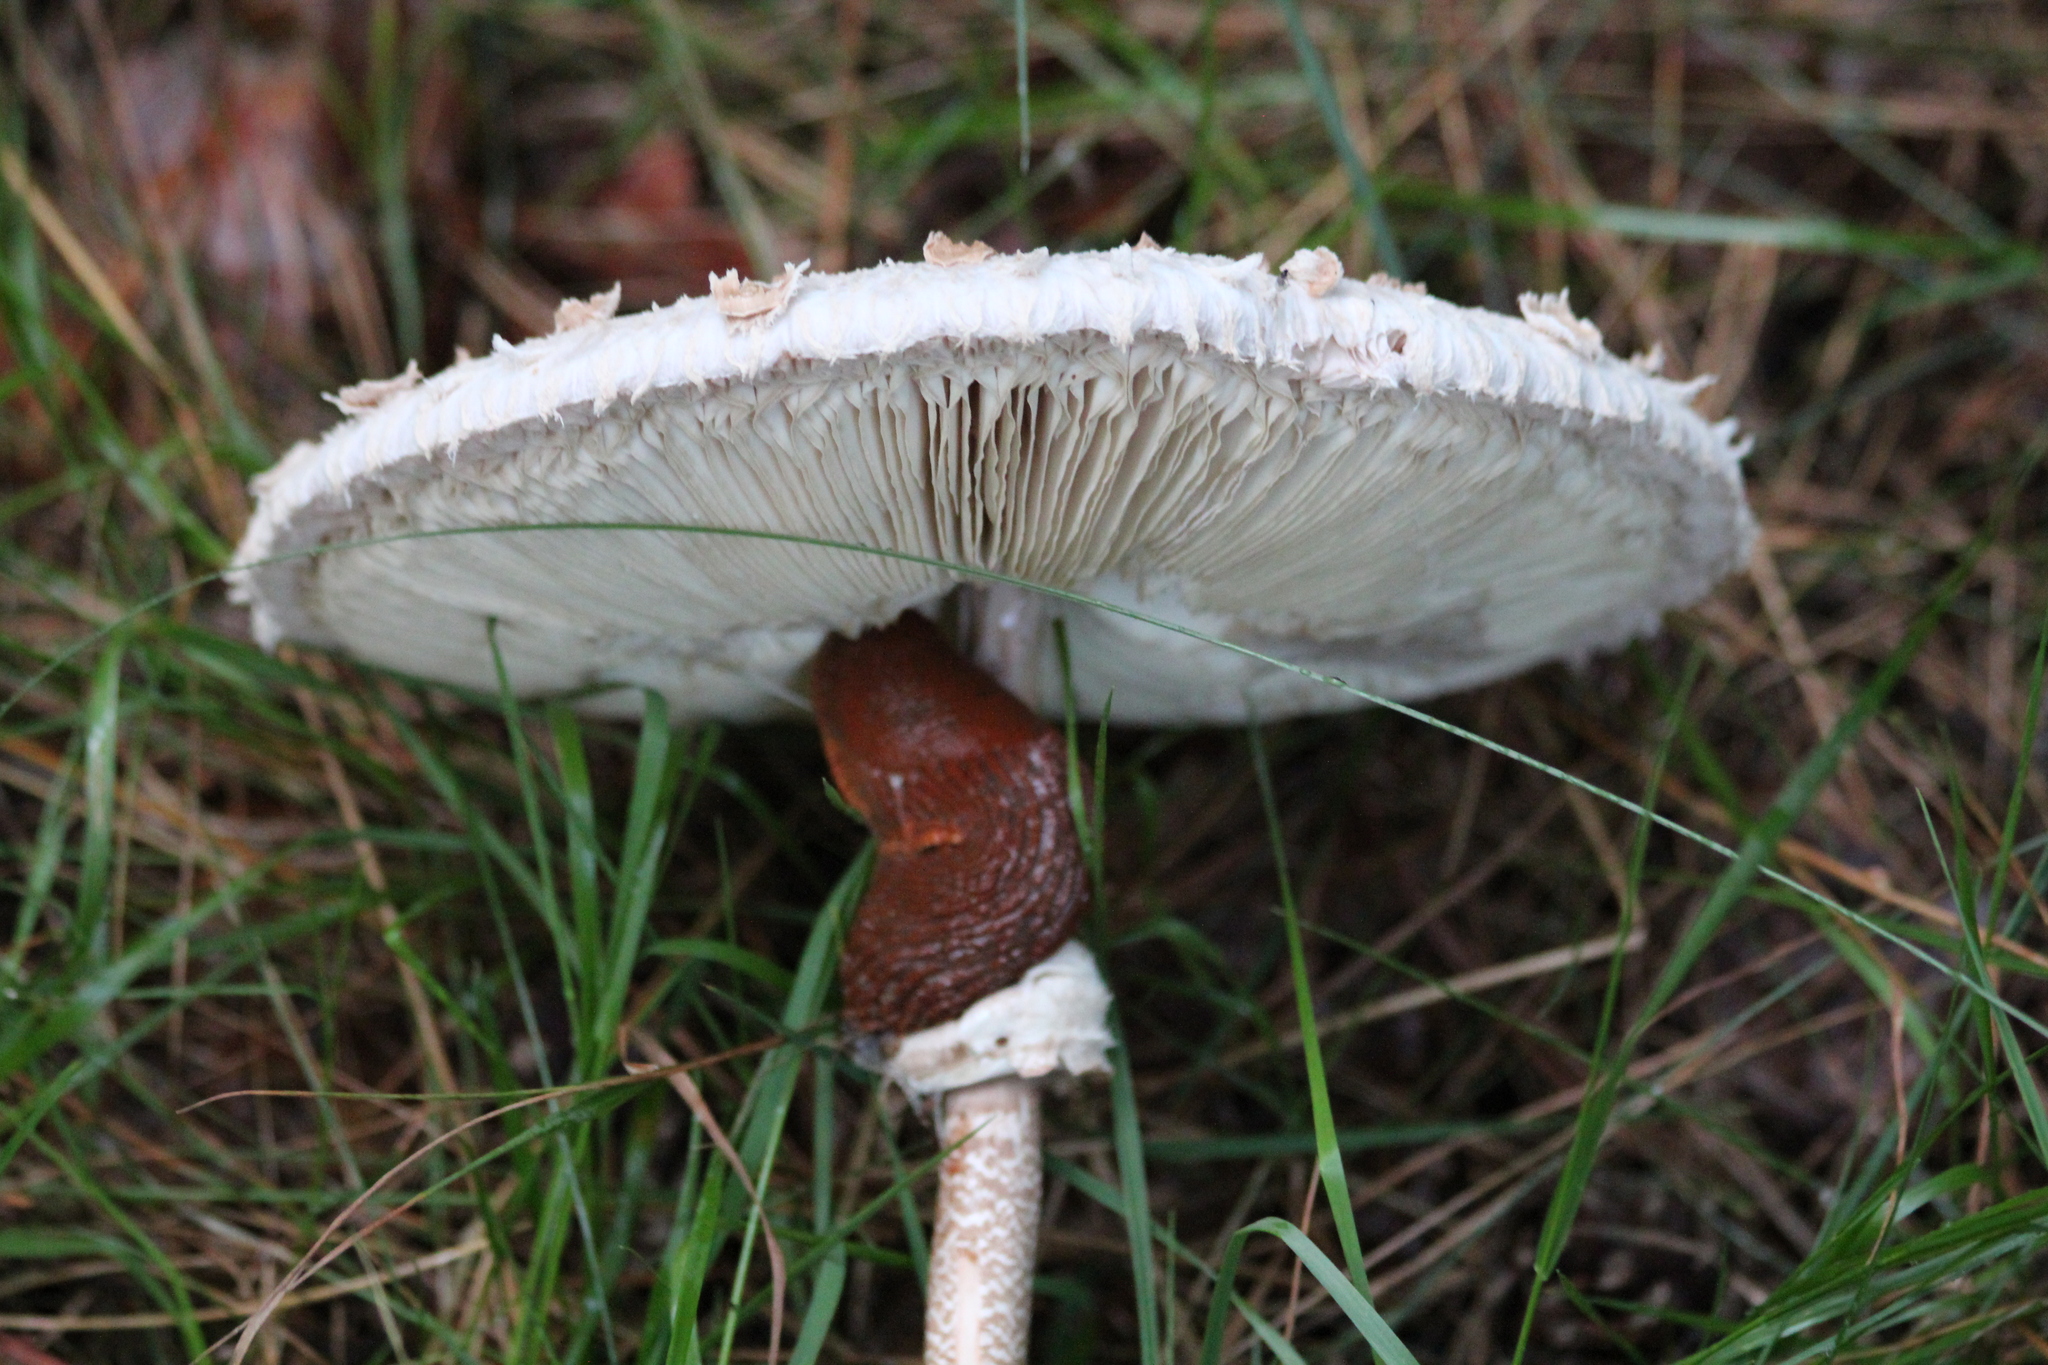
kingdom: Fungi
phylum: Basidiomycota
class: Agaricomycetes
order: Agaricales
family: Agaricaceae
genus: Macrolepiota
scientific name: Macrolepiota procera
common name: Parasol
